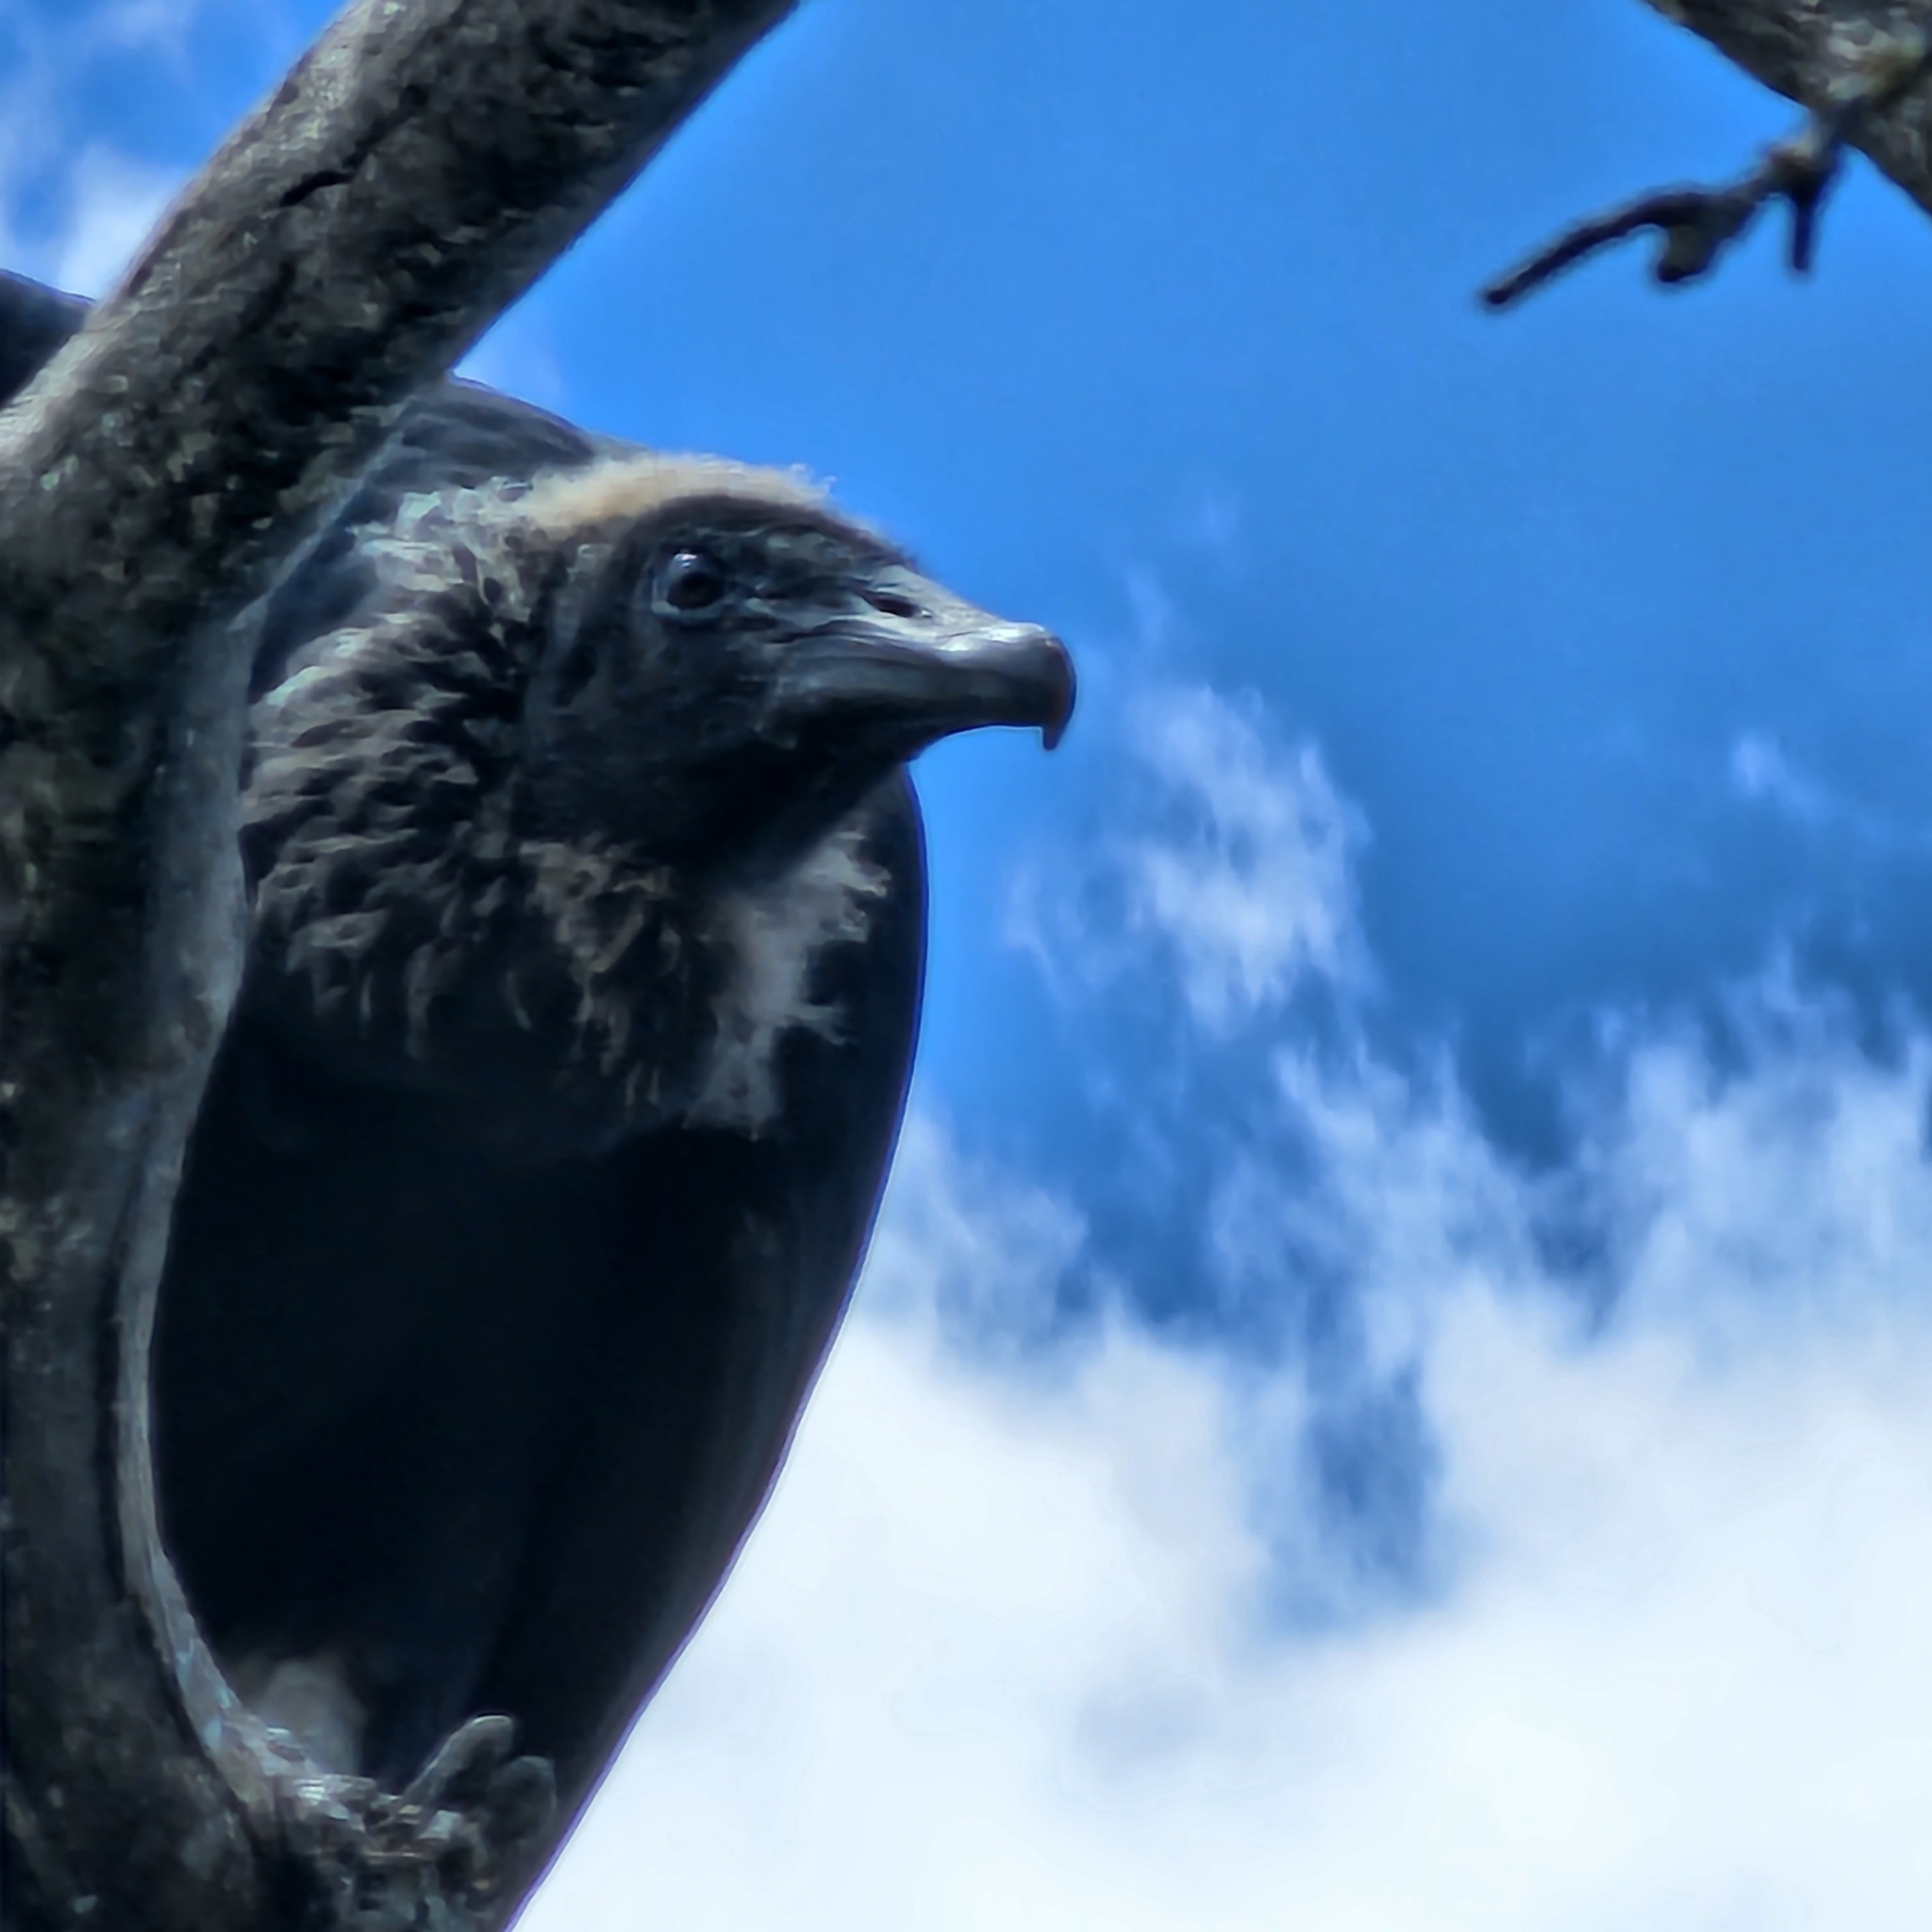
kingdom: Animalia
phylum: Chordata
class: Aves
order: Accipitriformes
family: Cathartidae
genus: Coragyps
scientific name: Coragyps atratus
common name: Black vulture
